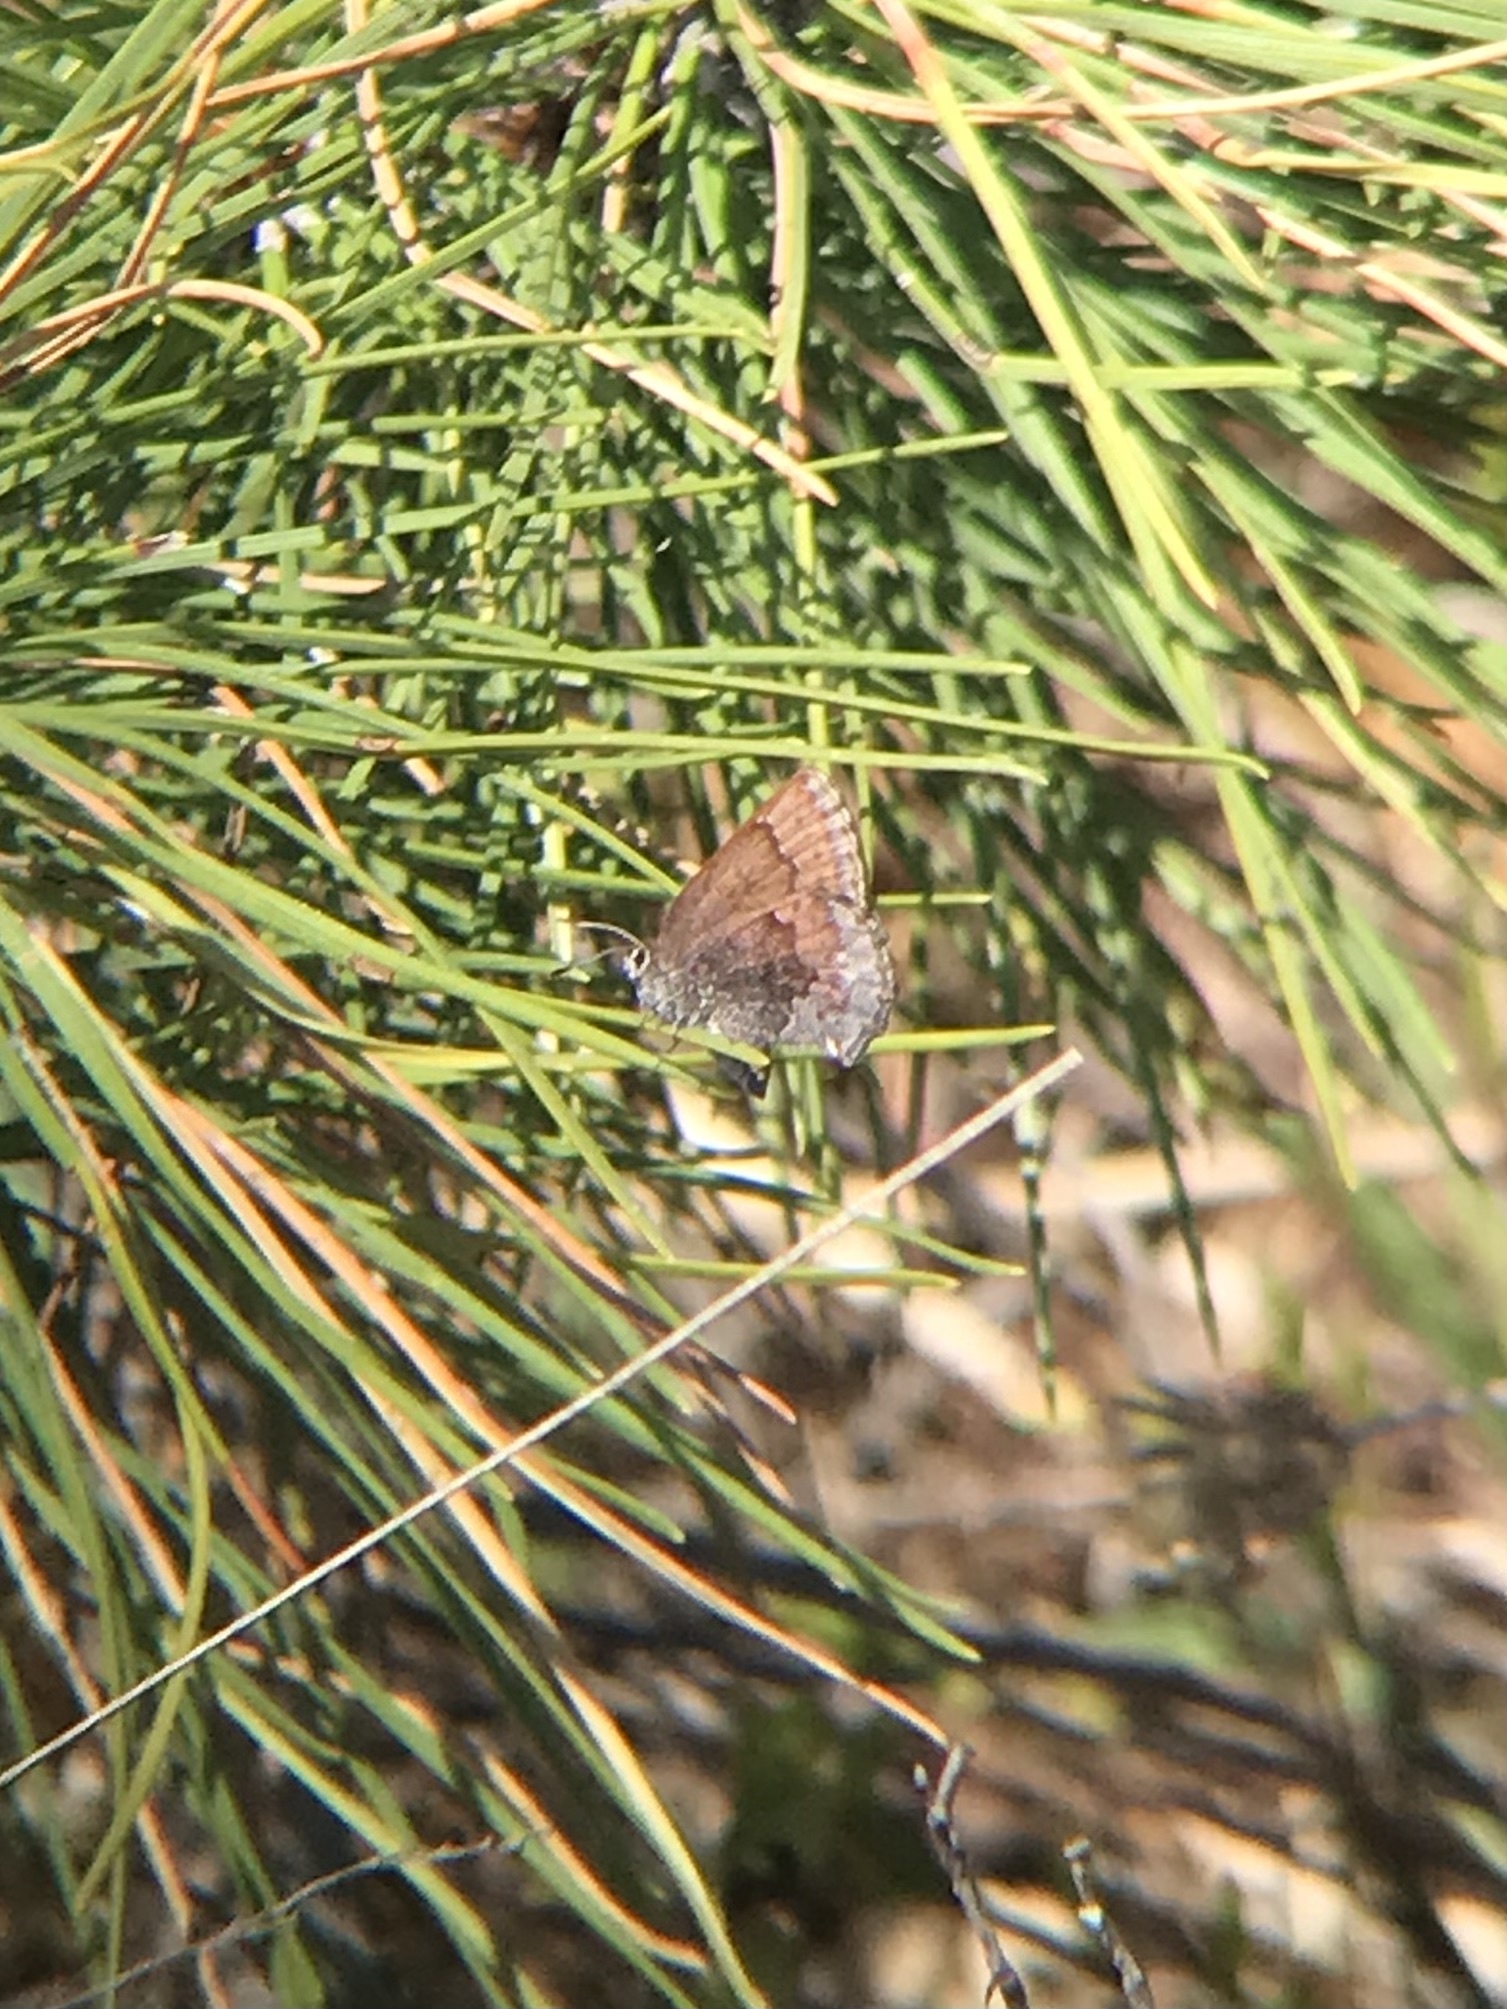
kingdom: Animalia
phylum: Arthropoda
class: Insecta
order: Lepidoptera
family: Lycaenidae
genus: Callophrys
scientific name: Callophrys polios
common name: Hoary elfin
